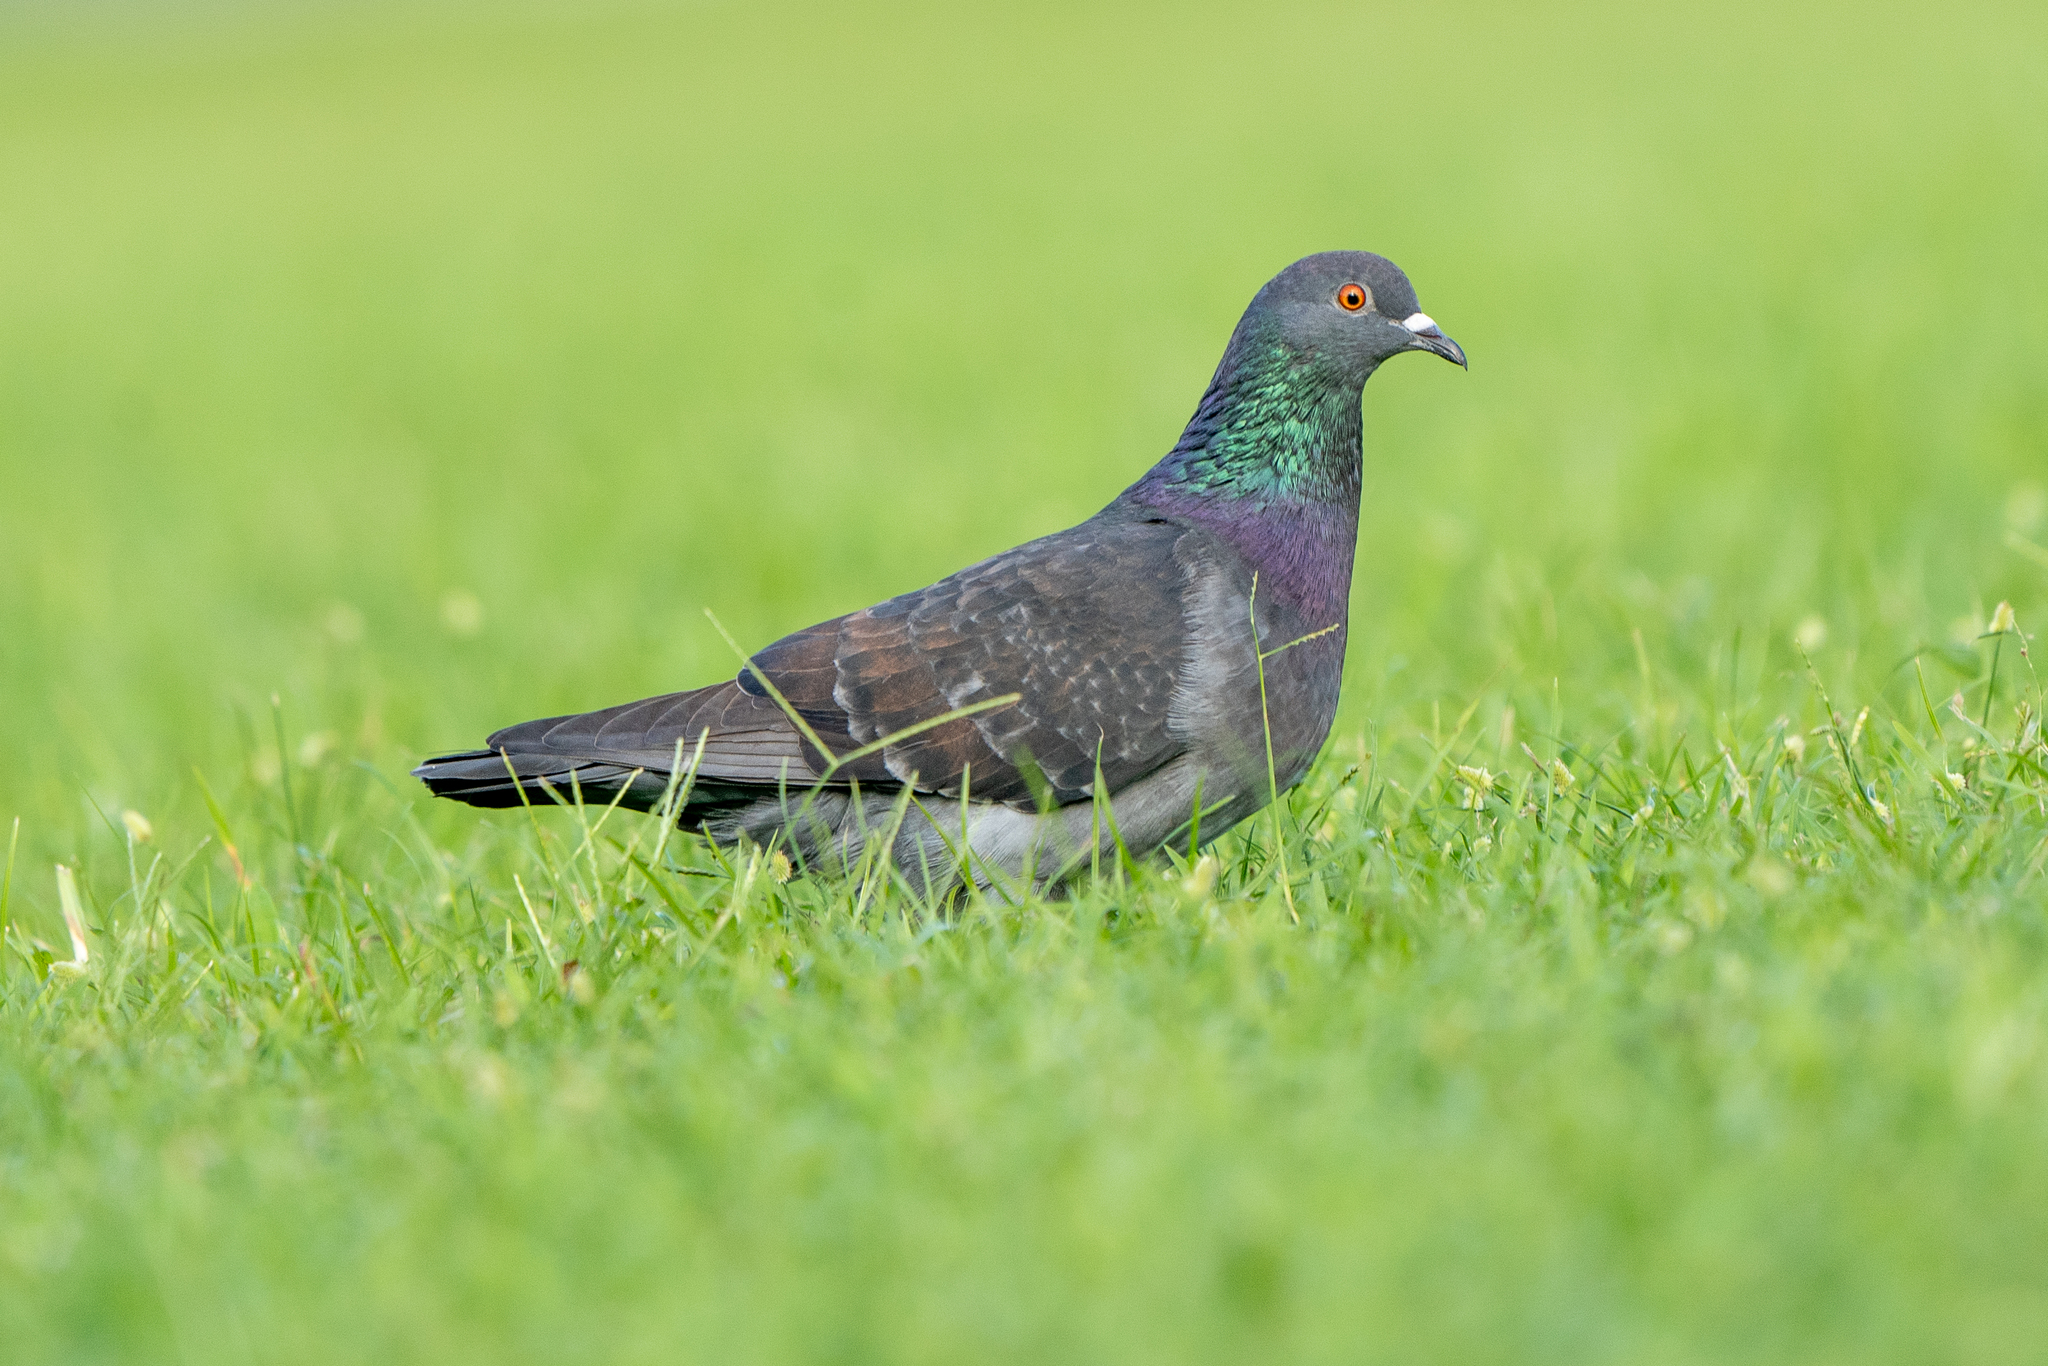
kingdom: Animalia
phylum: Chordata
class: Aves
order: Columbiformes
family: Columbidae
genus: Columba
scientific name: Columba livia
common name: Rock pigeon
